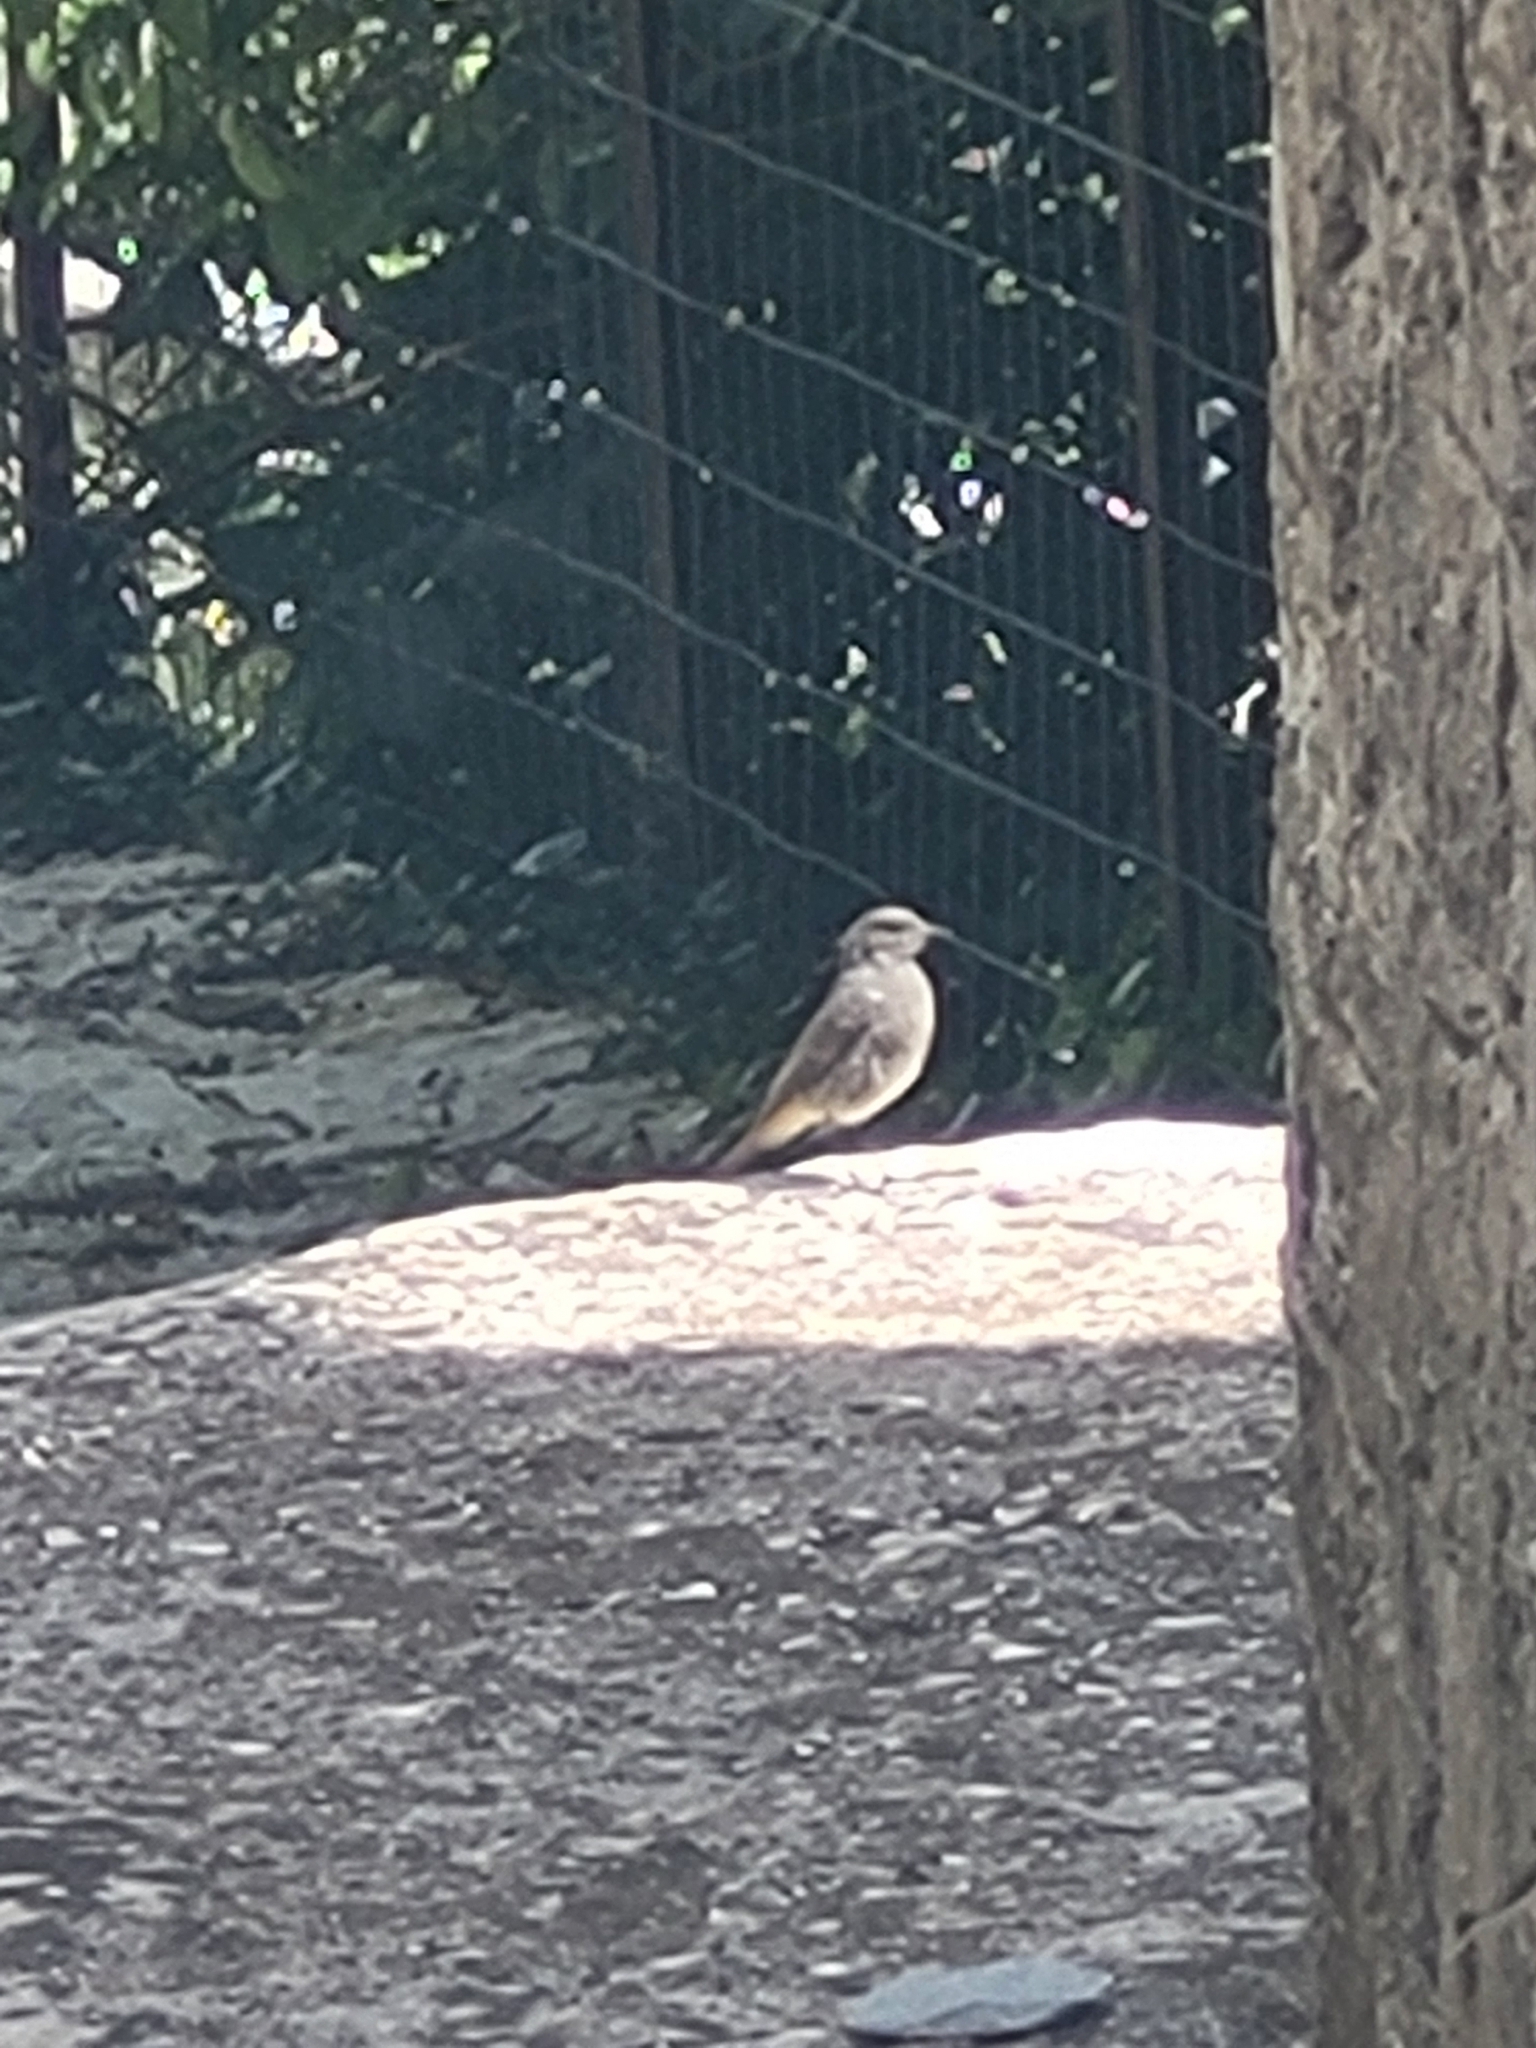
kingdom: Animalia
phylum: Chordata
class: Aves
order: Passeriformes
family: Muscicapidae
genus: Phoenicurus
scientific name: Phoenicurus ochruros
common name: Black redstart
